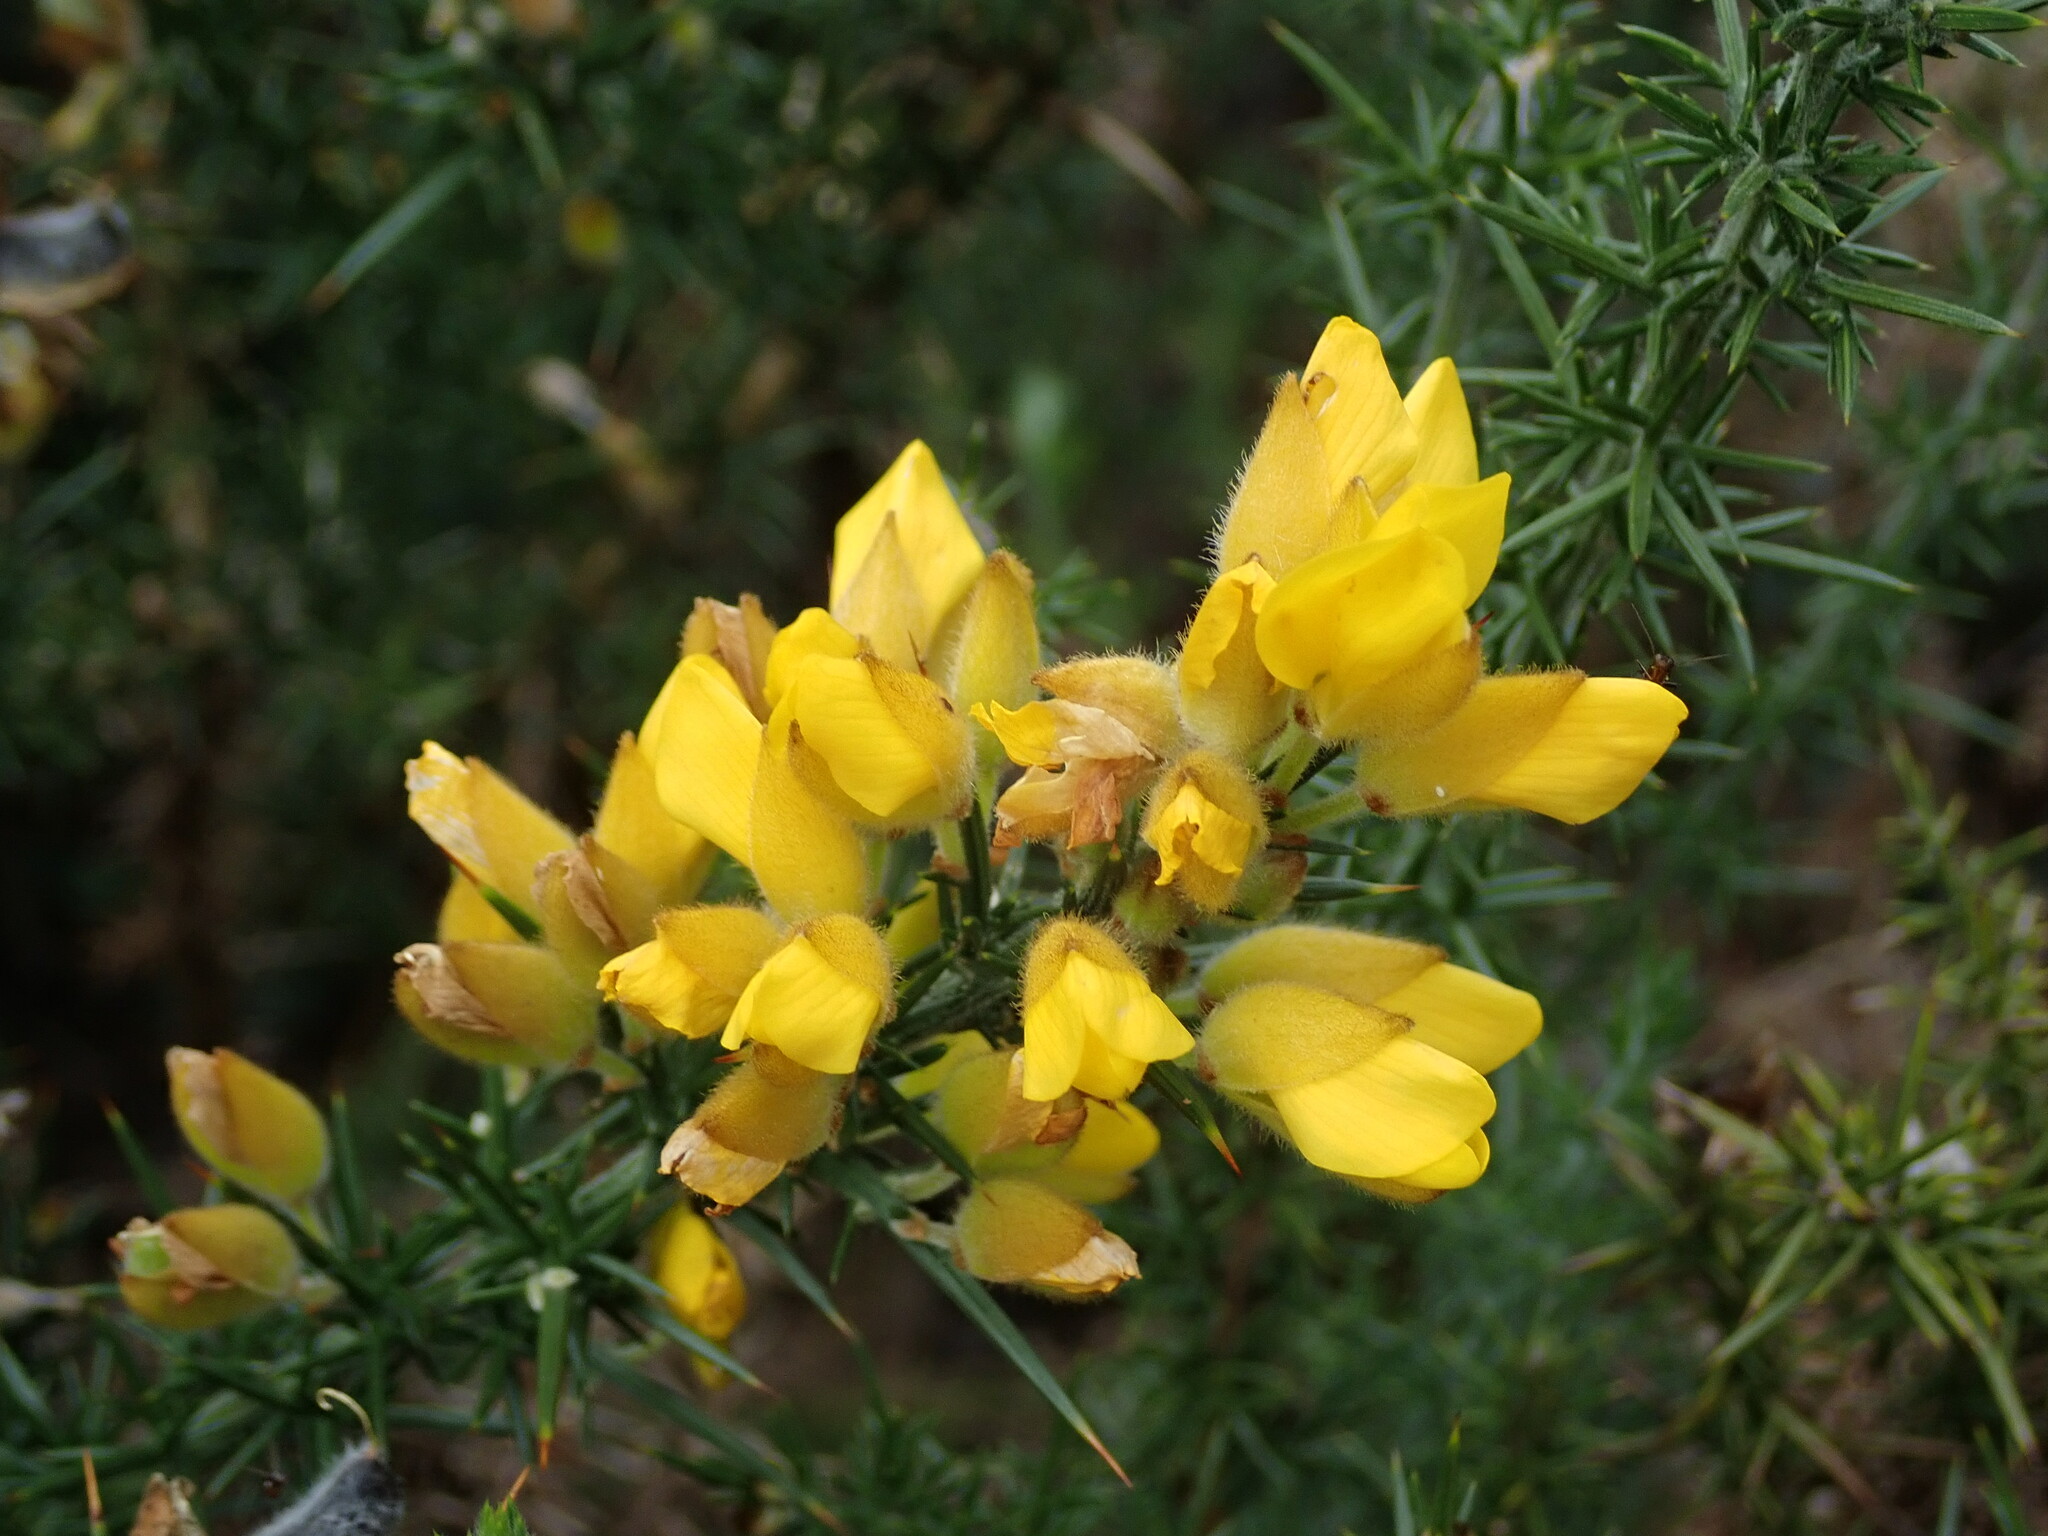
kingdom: Plantae
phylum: Tracheophyta
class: Magnoliopsida
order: Fabales
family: Fabaceae
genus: Ulex
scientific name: Ulex europaeus
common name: Common gorse
